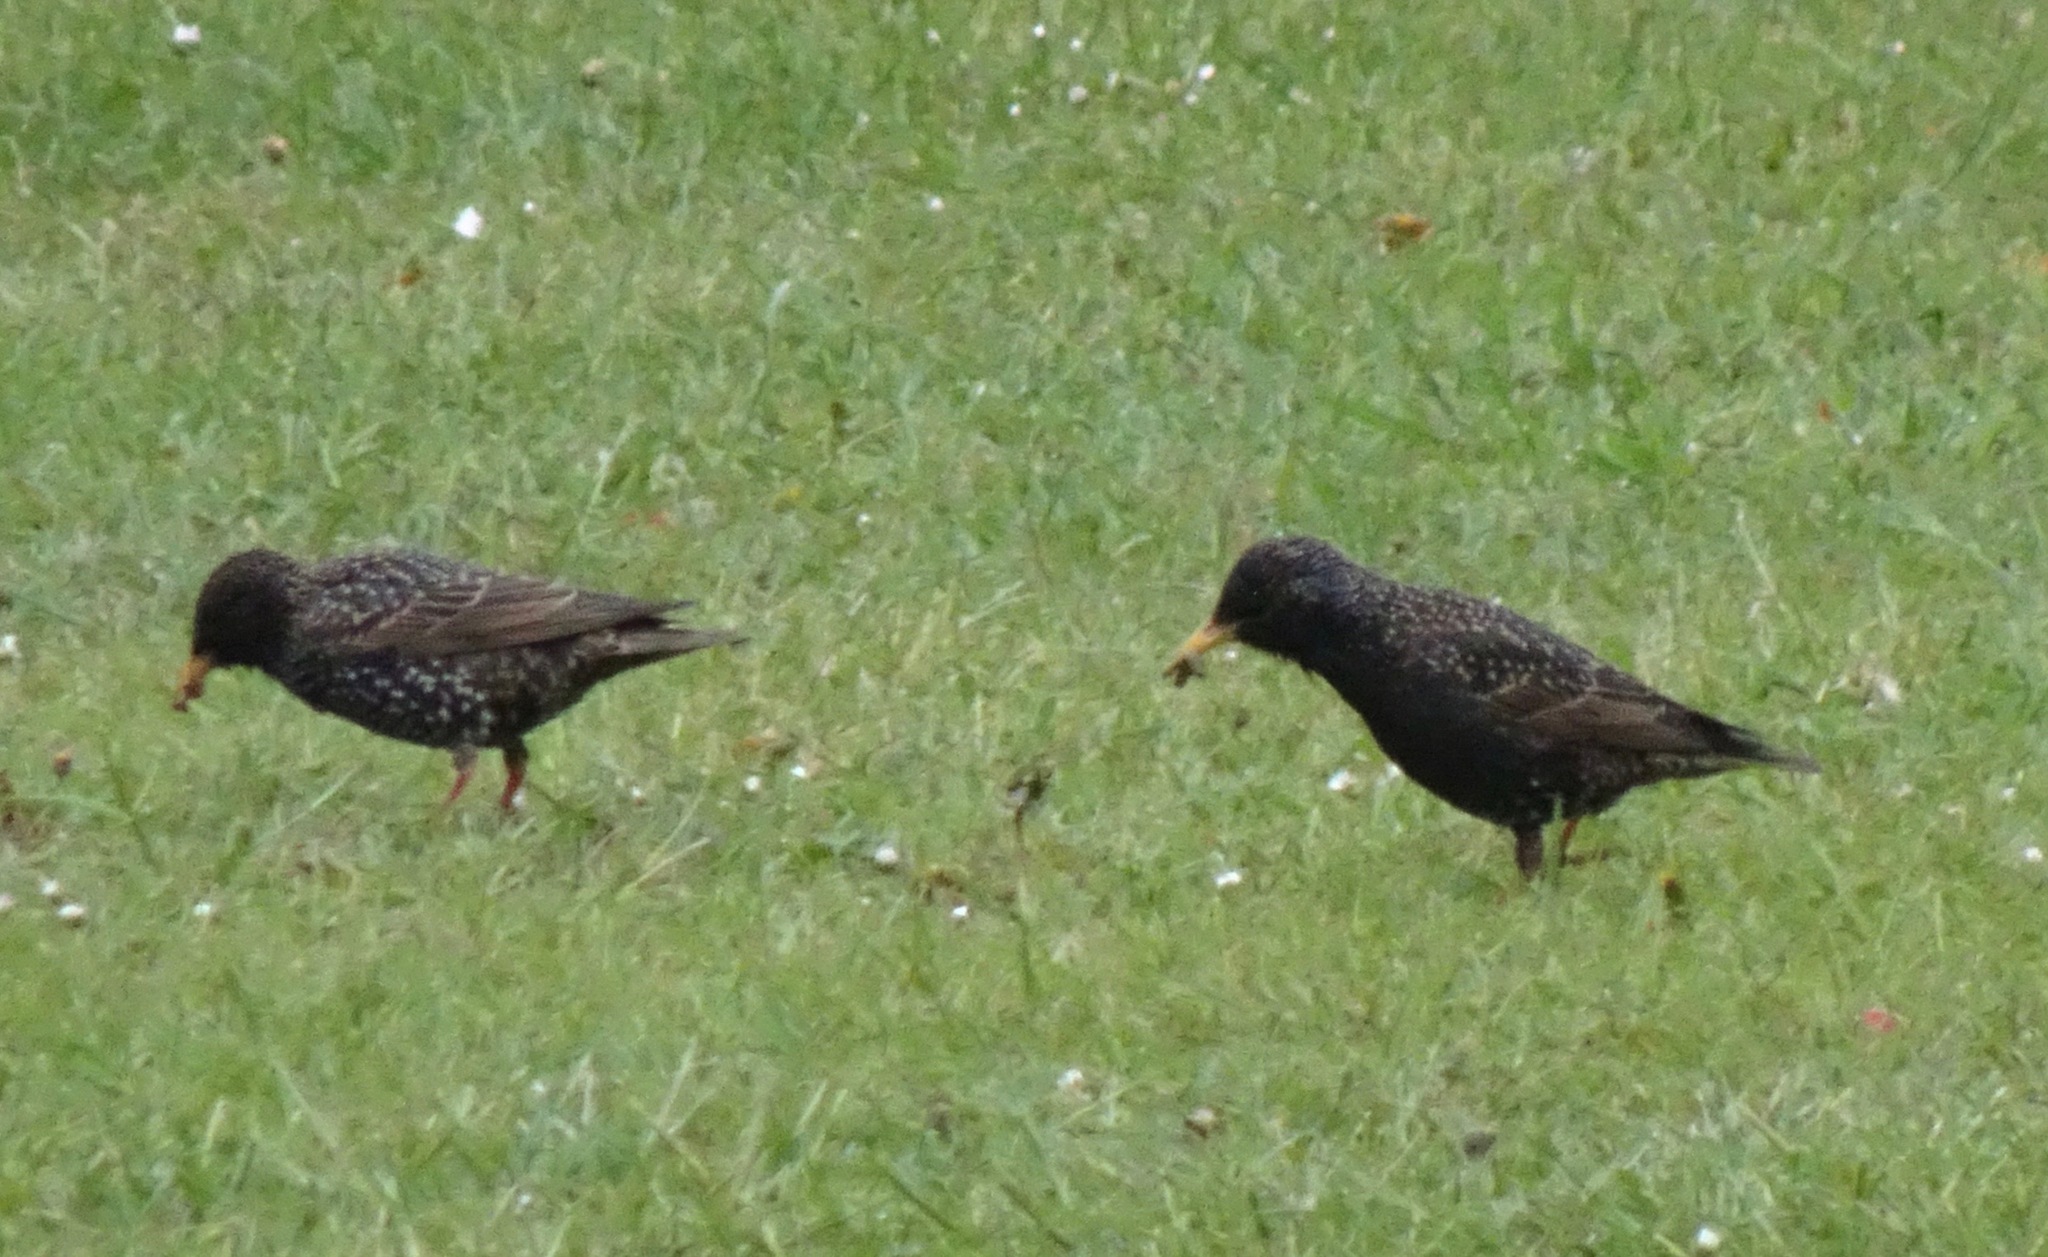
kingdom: Animalia
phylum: Chordata
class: Aves
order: Passeriformes
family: Sturnidae
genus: Sturnus
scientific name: Sturnus vulgaris
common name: Common starling
